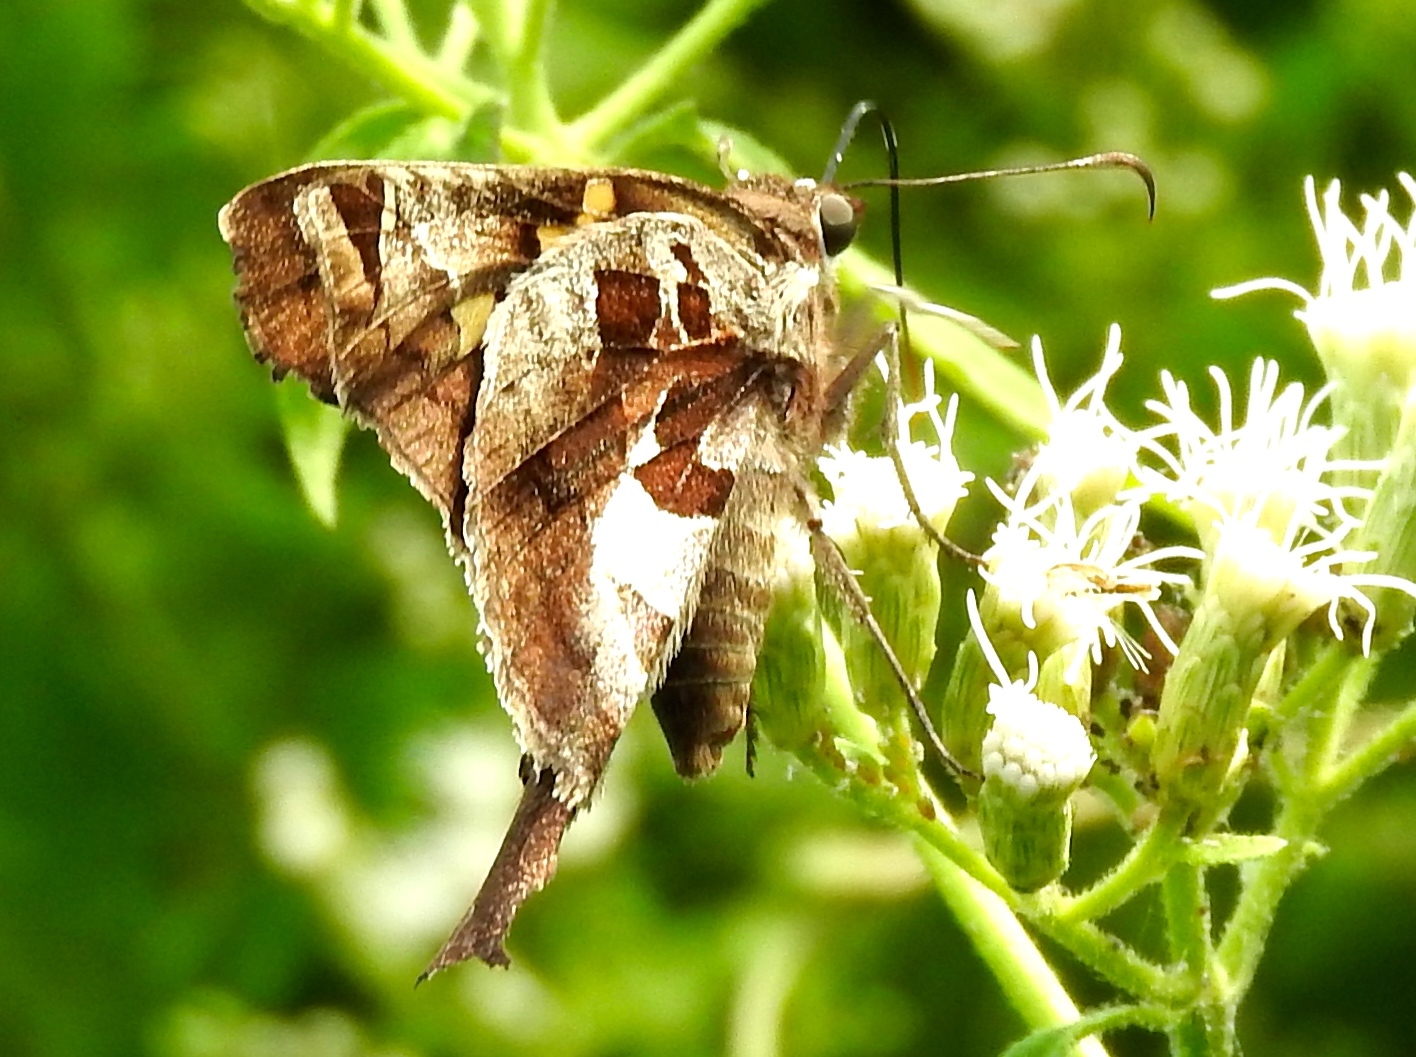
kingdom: Animalia
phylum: Arthropoda
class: Insecta
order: Lepidoptera
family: Hesperiidae
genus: Chioides
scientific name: Chioides zilpa
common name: Zilpa longtail
